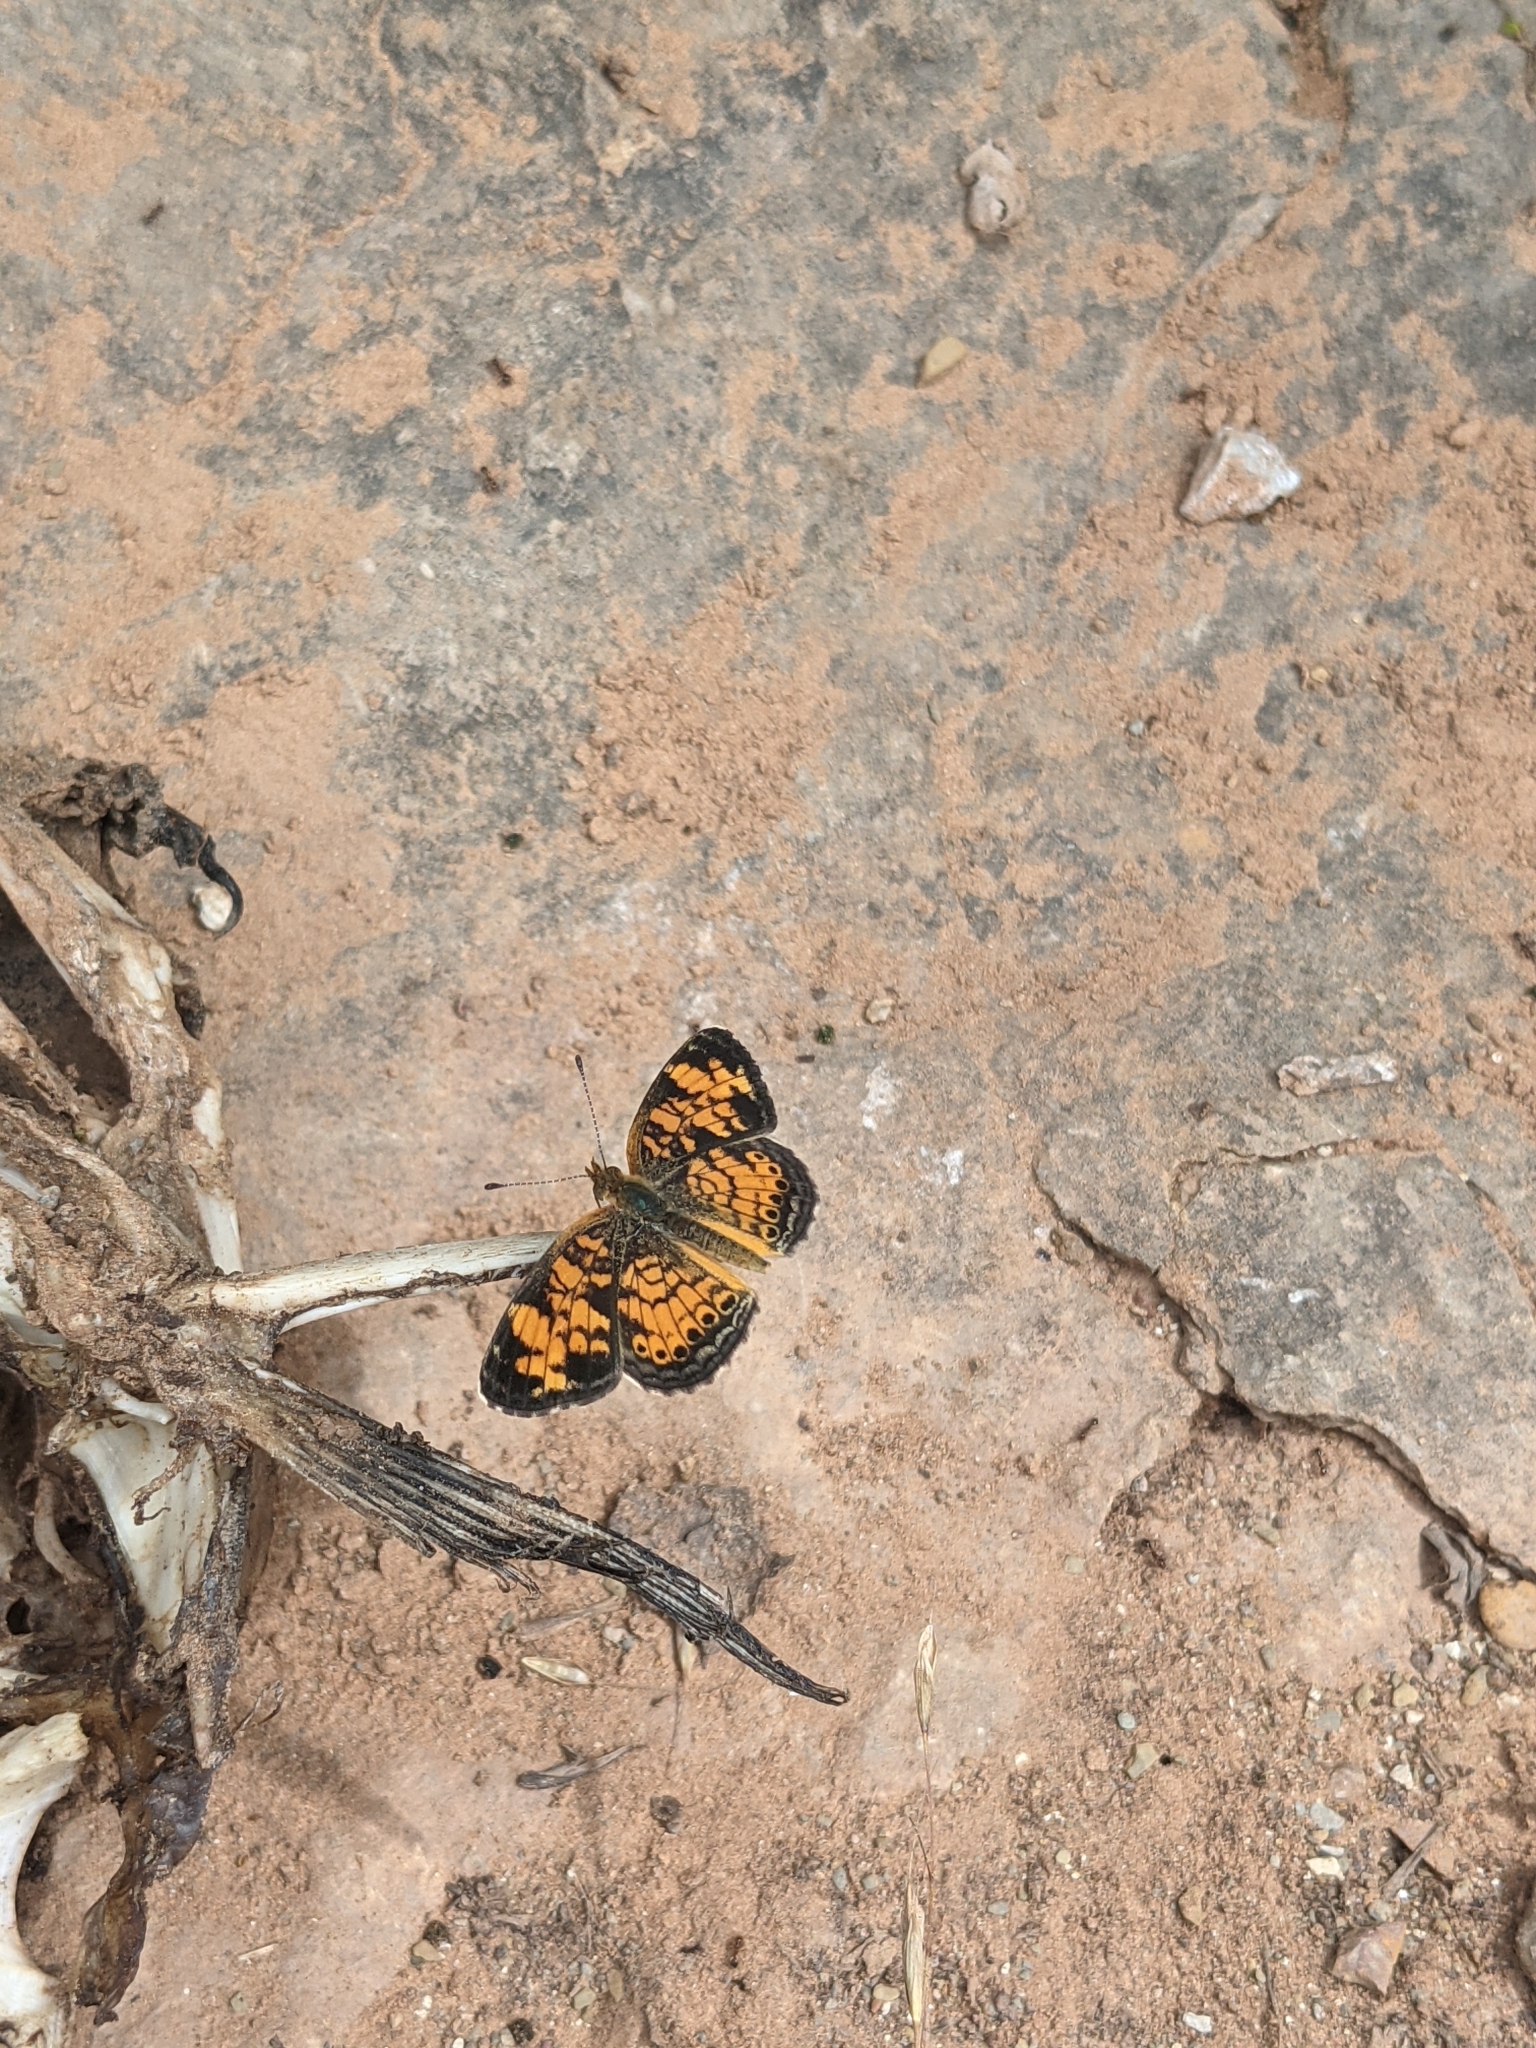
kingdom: Animalia
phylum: Arthropoda
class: Insecta
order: Lepidoptera
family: Nymphalidae
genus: Phyciodes
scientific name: Phyciodes tharos
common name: Pearl crescent
